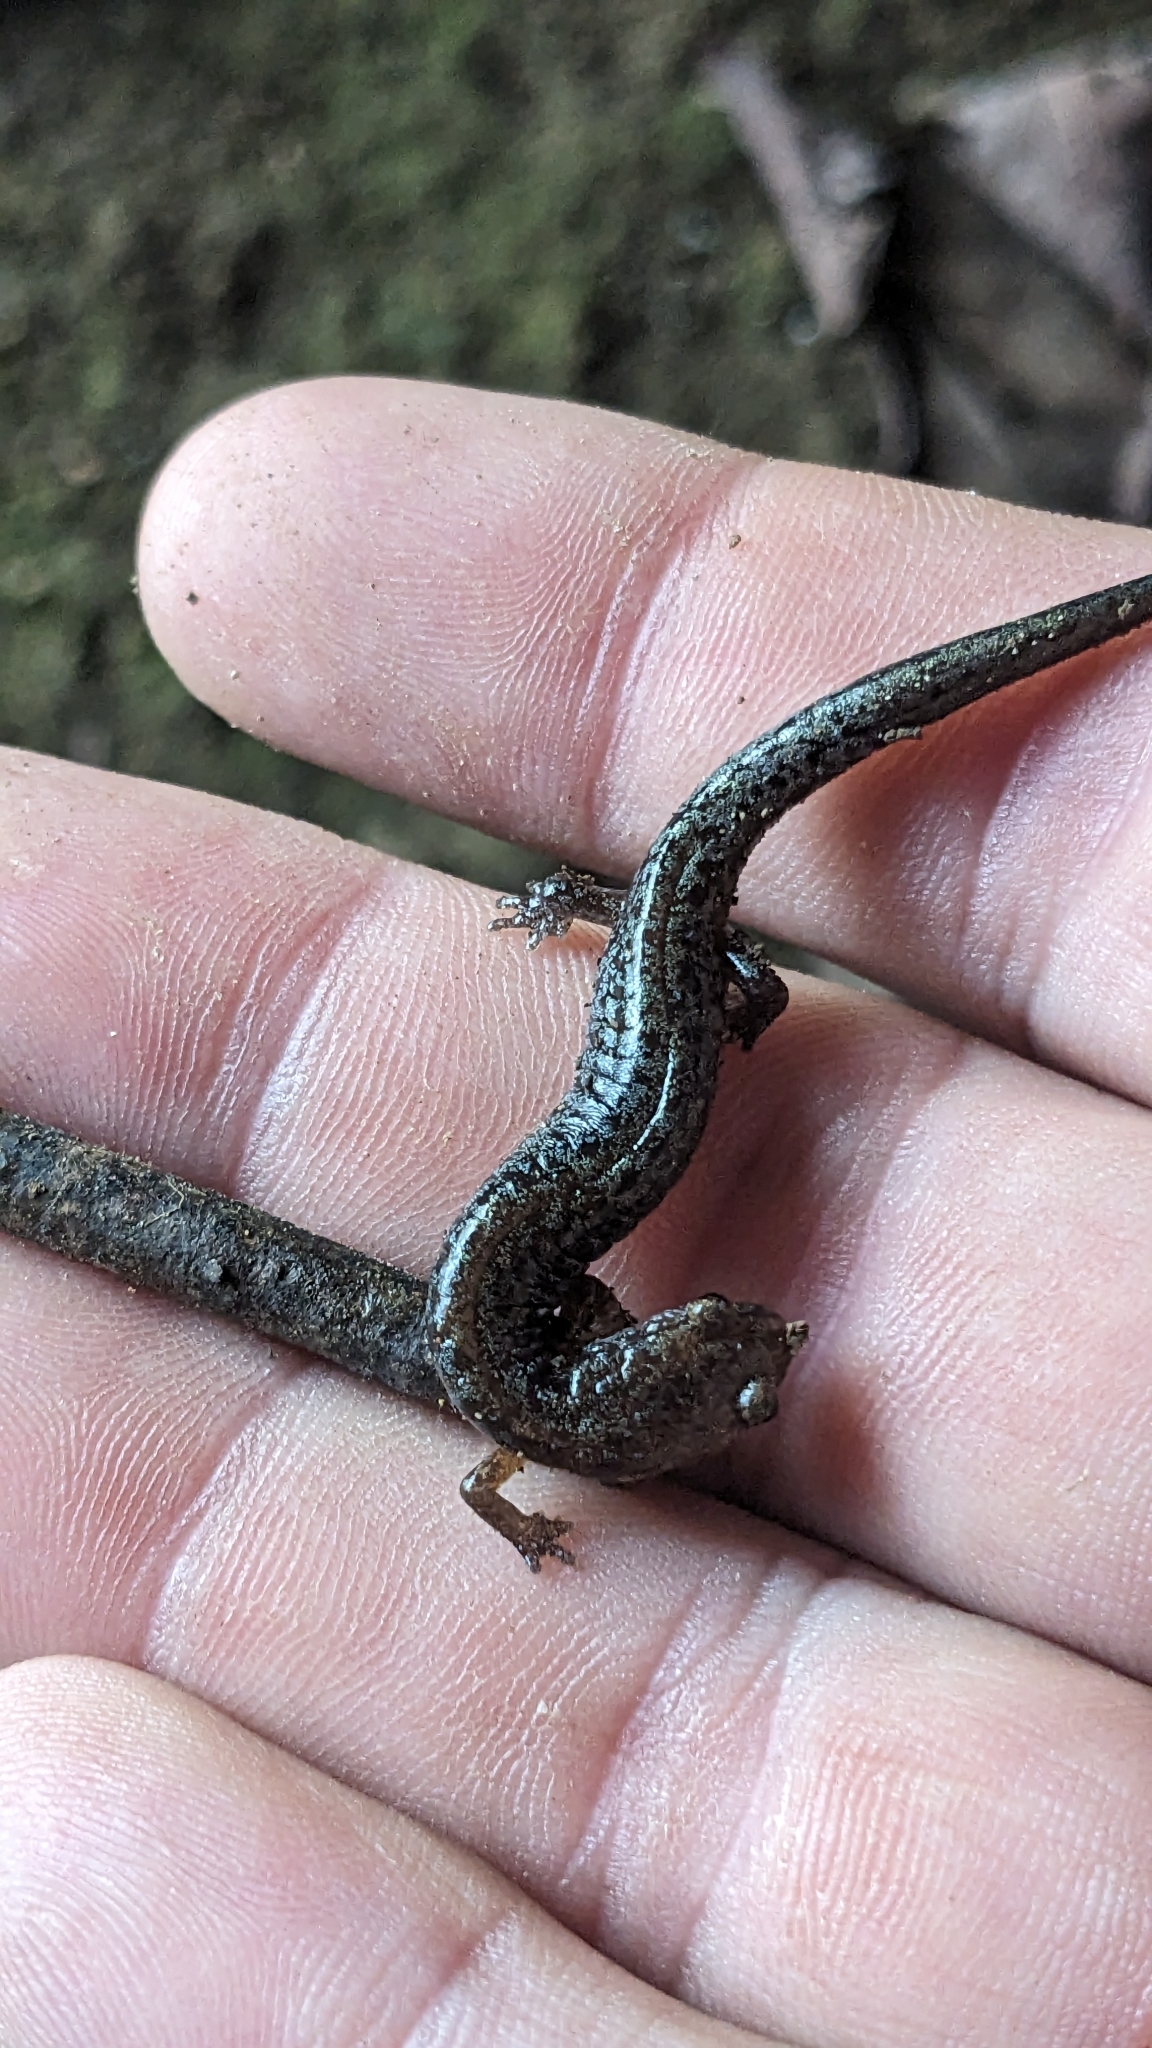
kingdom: Animalia
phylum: Chordata
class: Amphibia
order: Caudata
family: Plethodontidae
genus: Plethodon
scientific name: Plethodon ventralis
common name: Southern zigzag salamander
